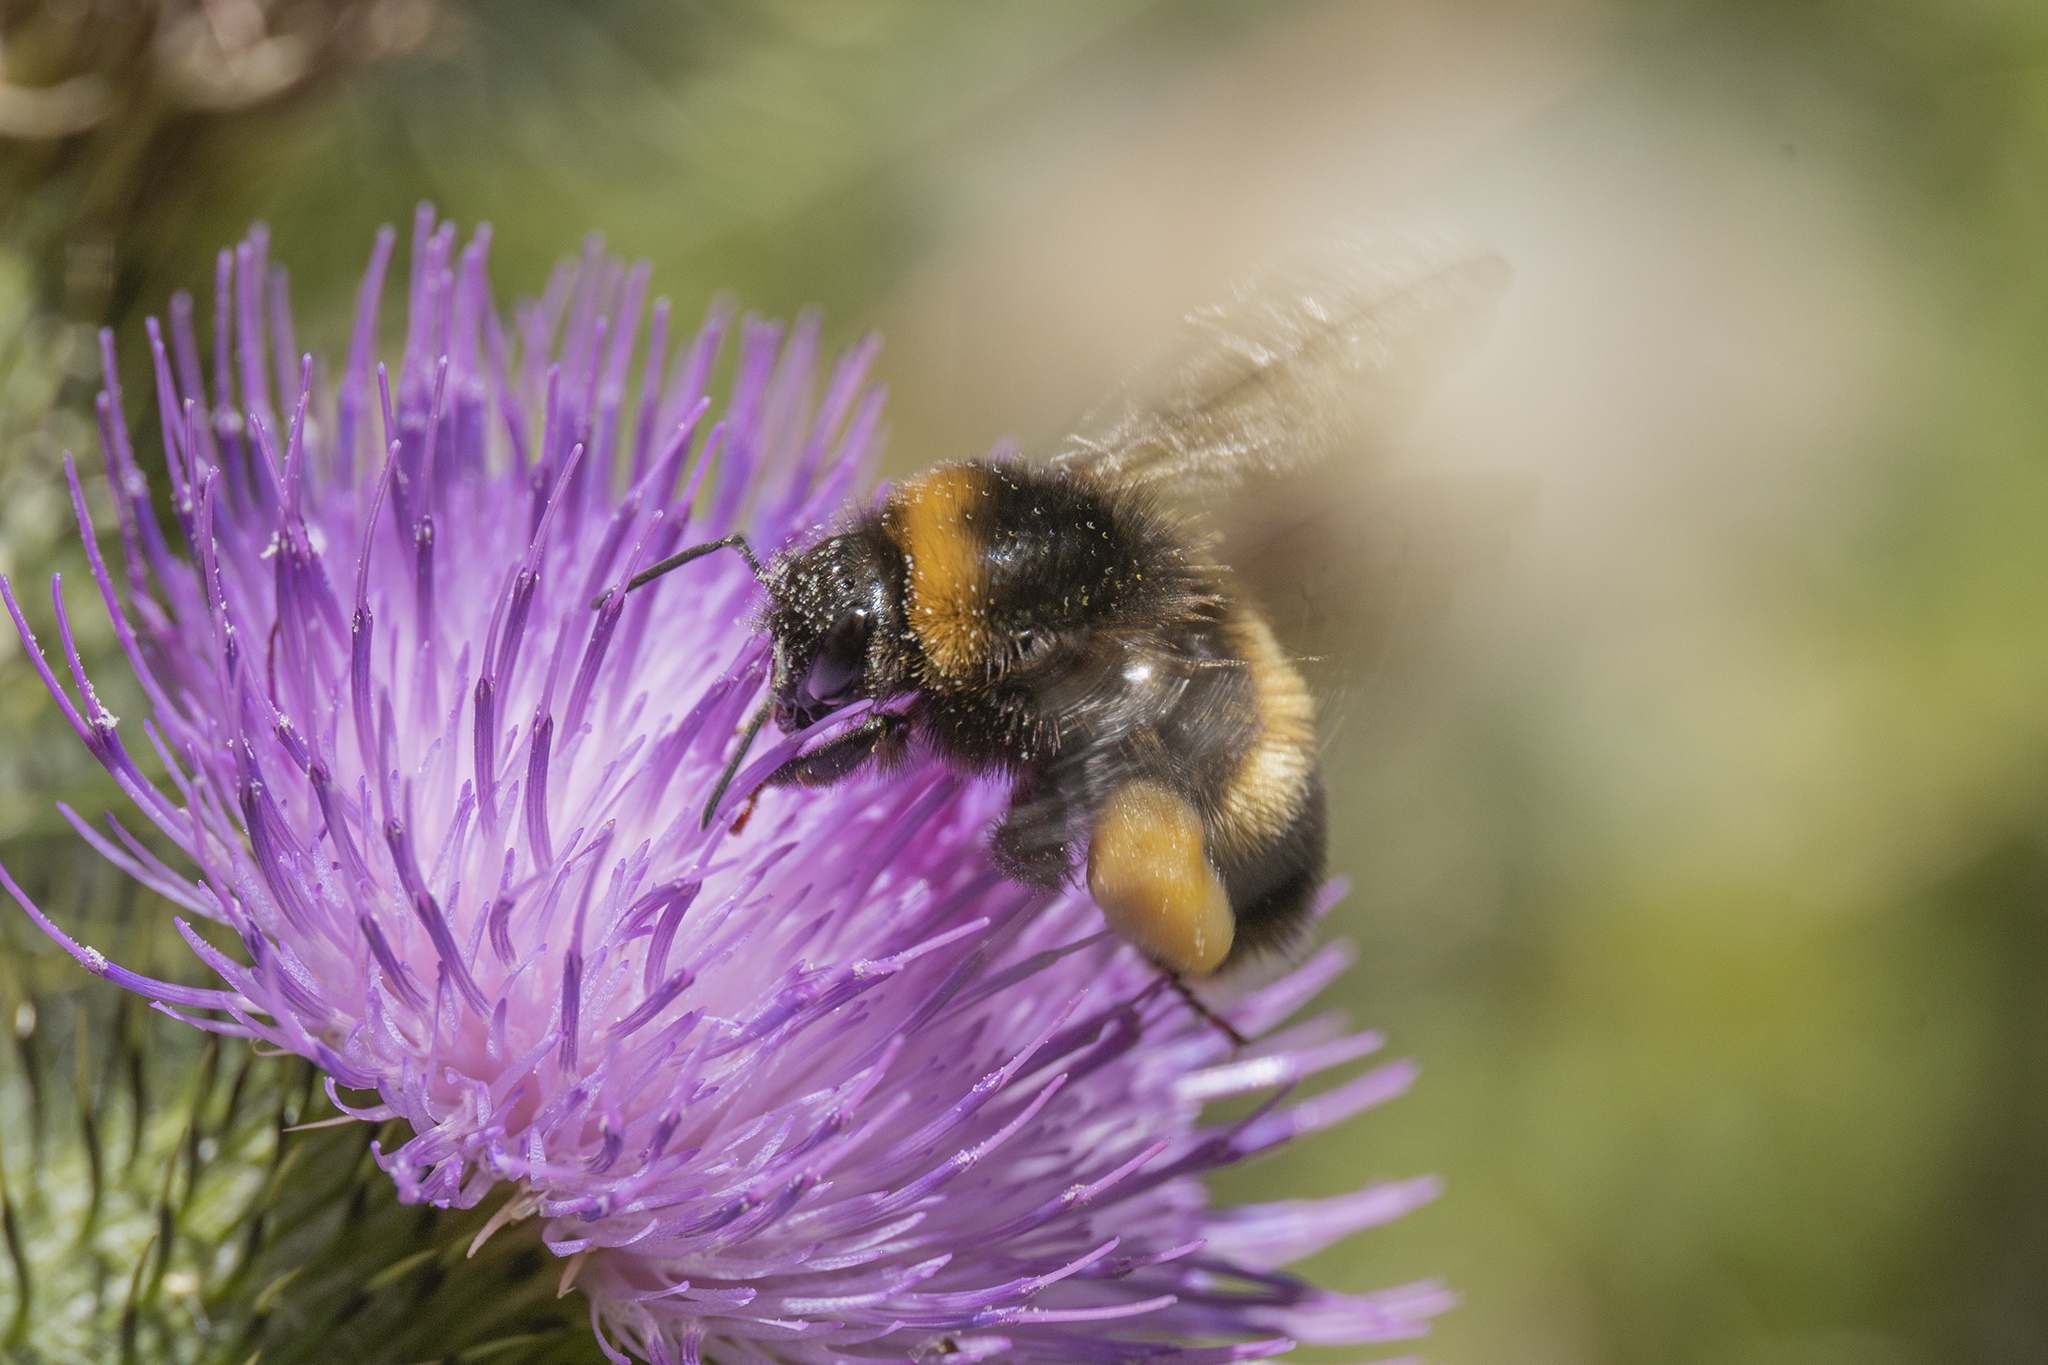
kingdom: Animalia
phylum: Arthropoda
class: Insecta
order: Hymenoptera
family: Apidae
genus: Bombus
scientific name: Bombus terrestris
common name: Buff-tailed bumblebee
